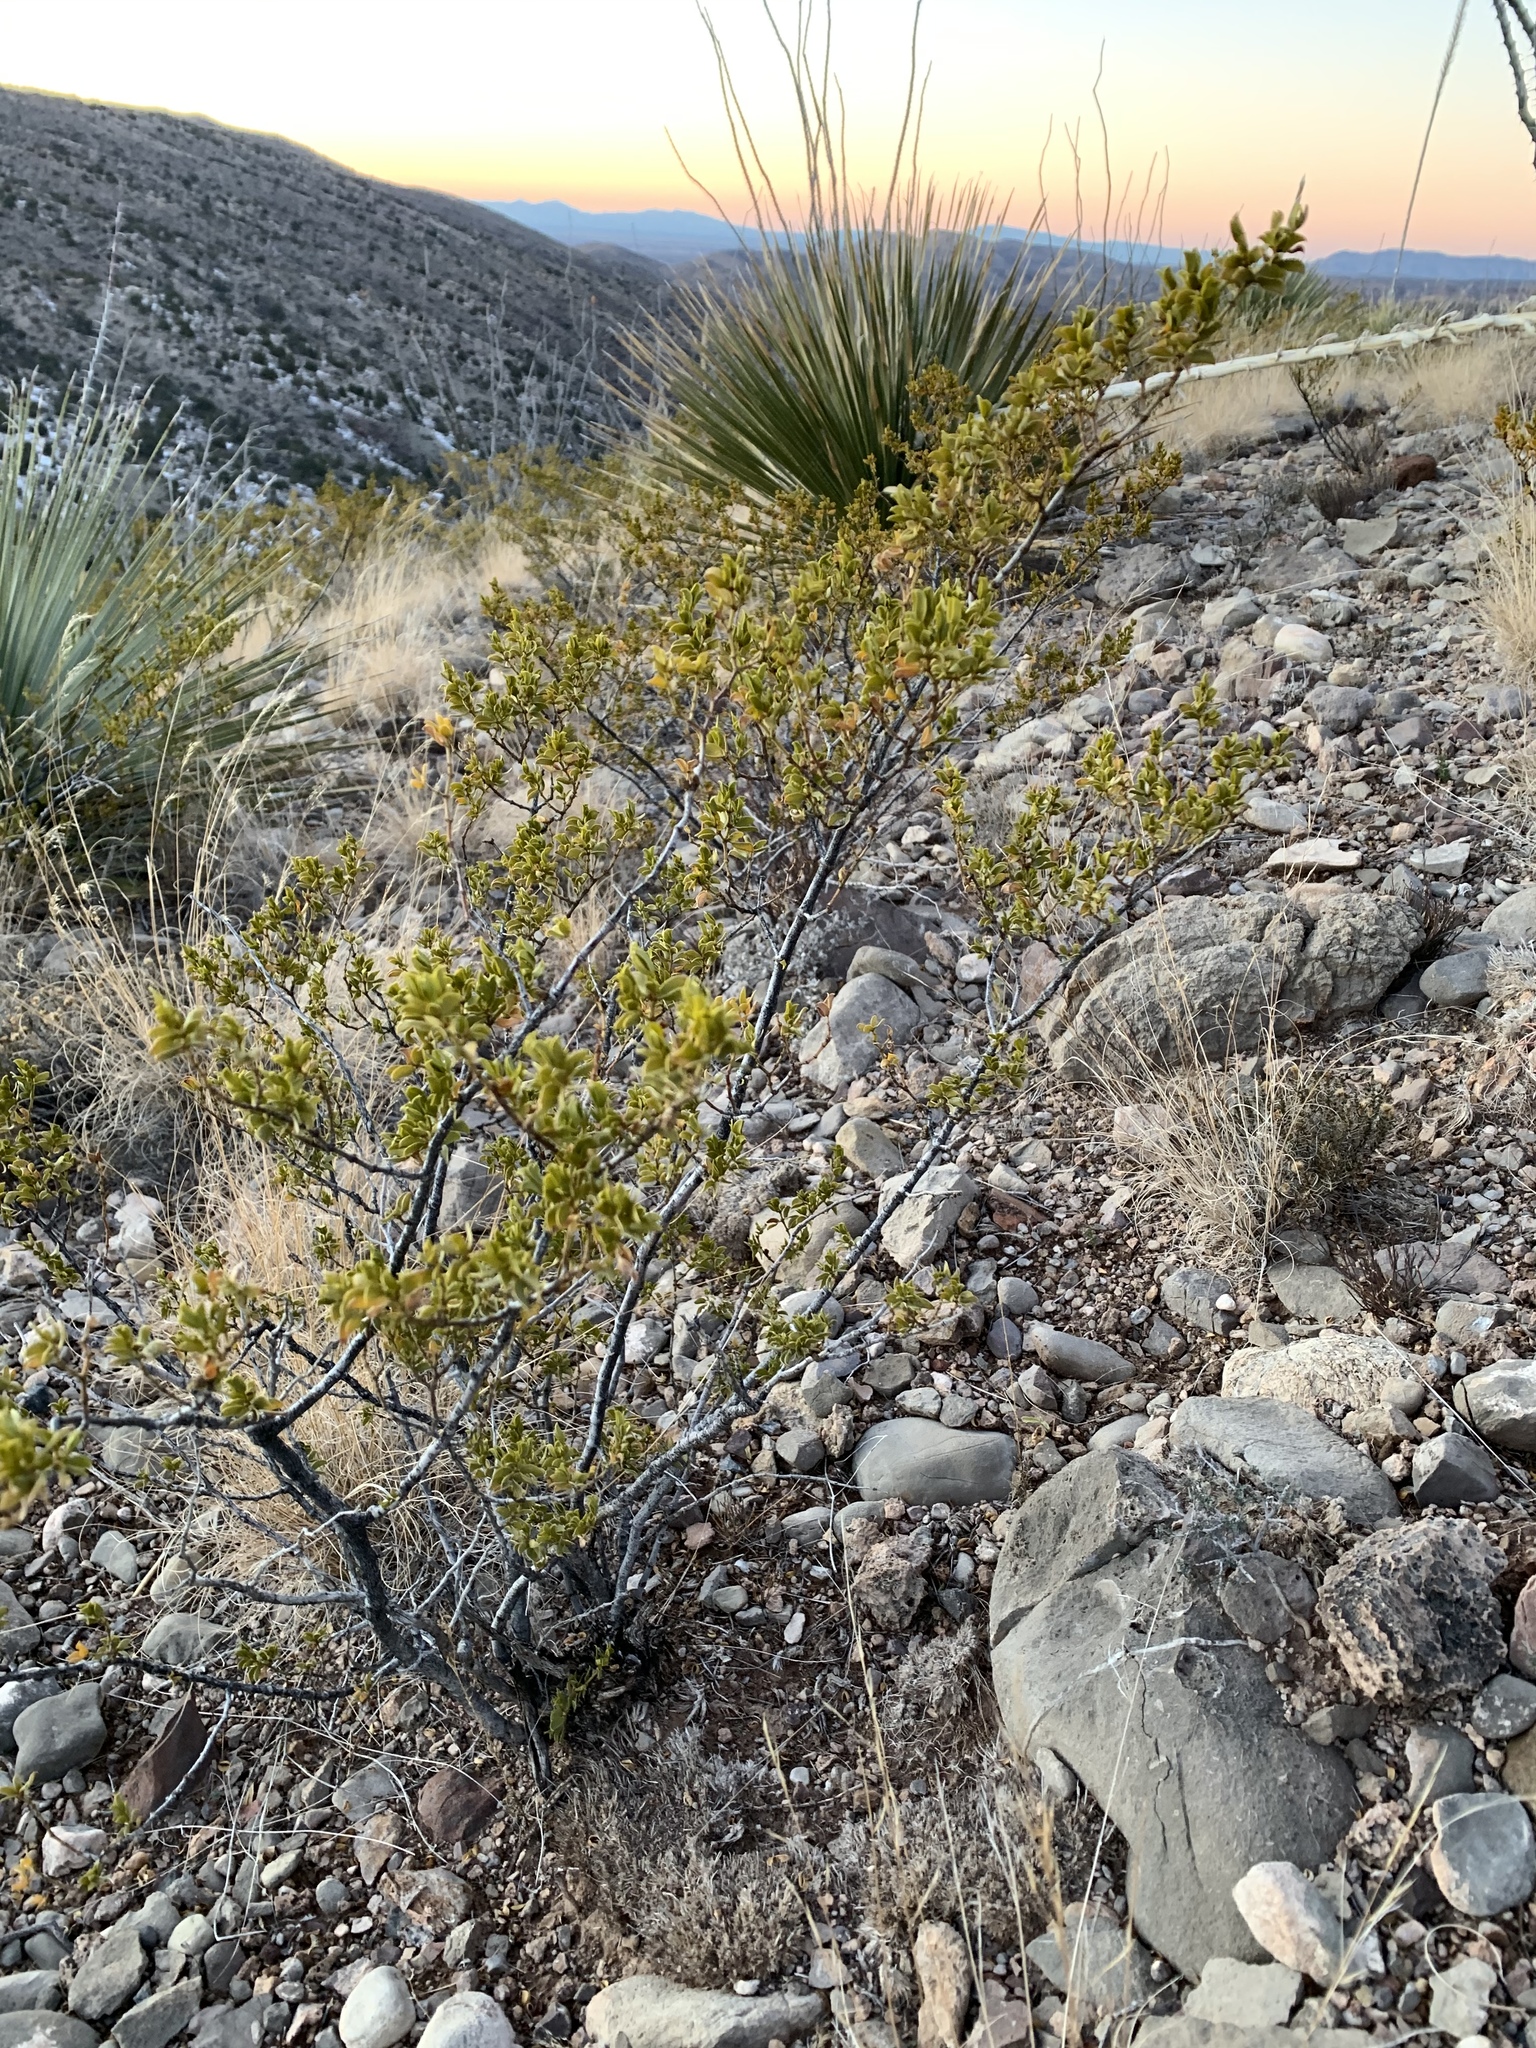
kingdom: Plantae
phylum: Tracheophyta
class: Magnoliopsida
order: Zygophyllales
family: Zygophyllaceae
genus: Larrea
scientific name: Larrea tridentata
